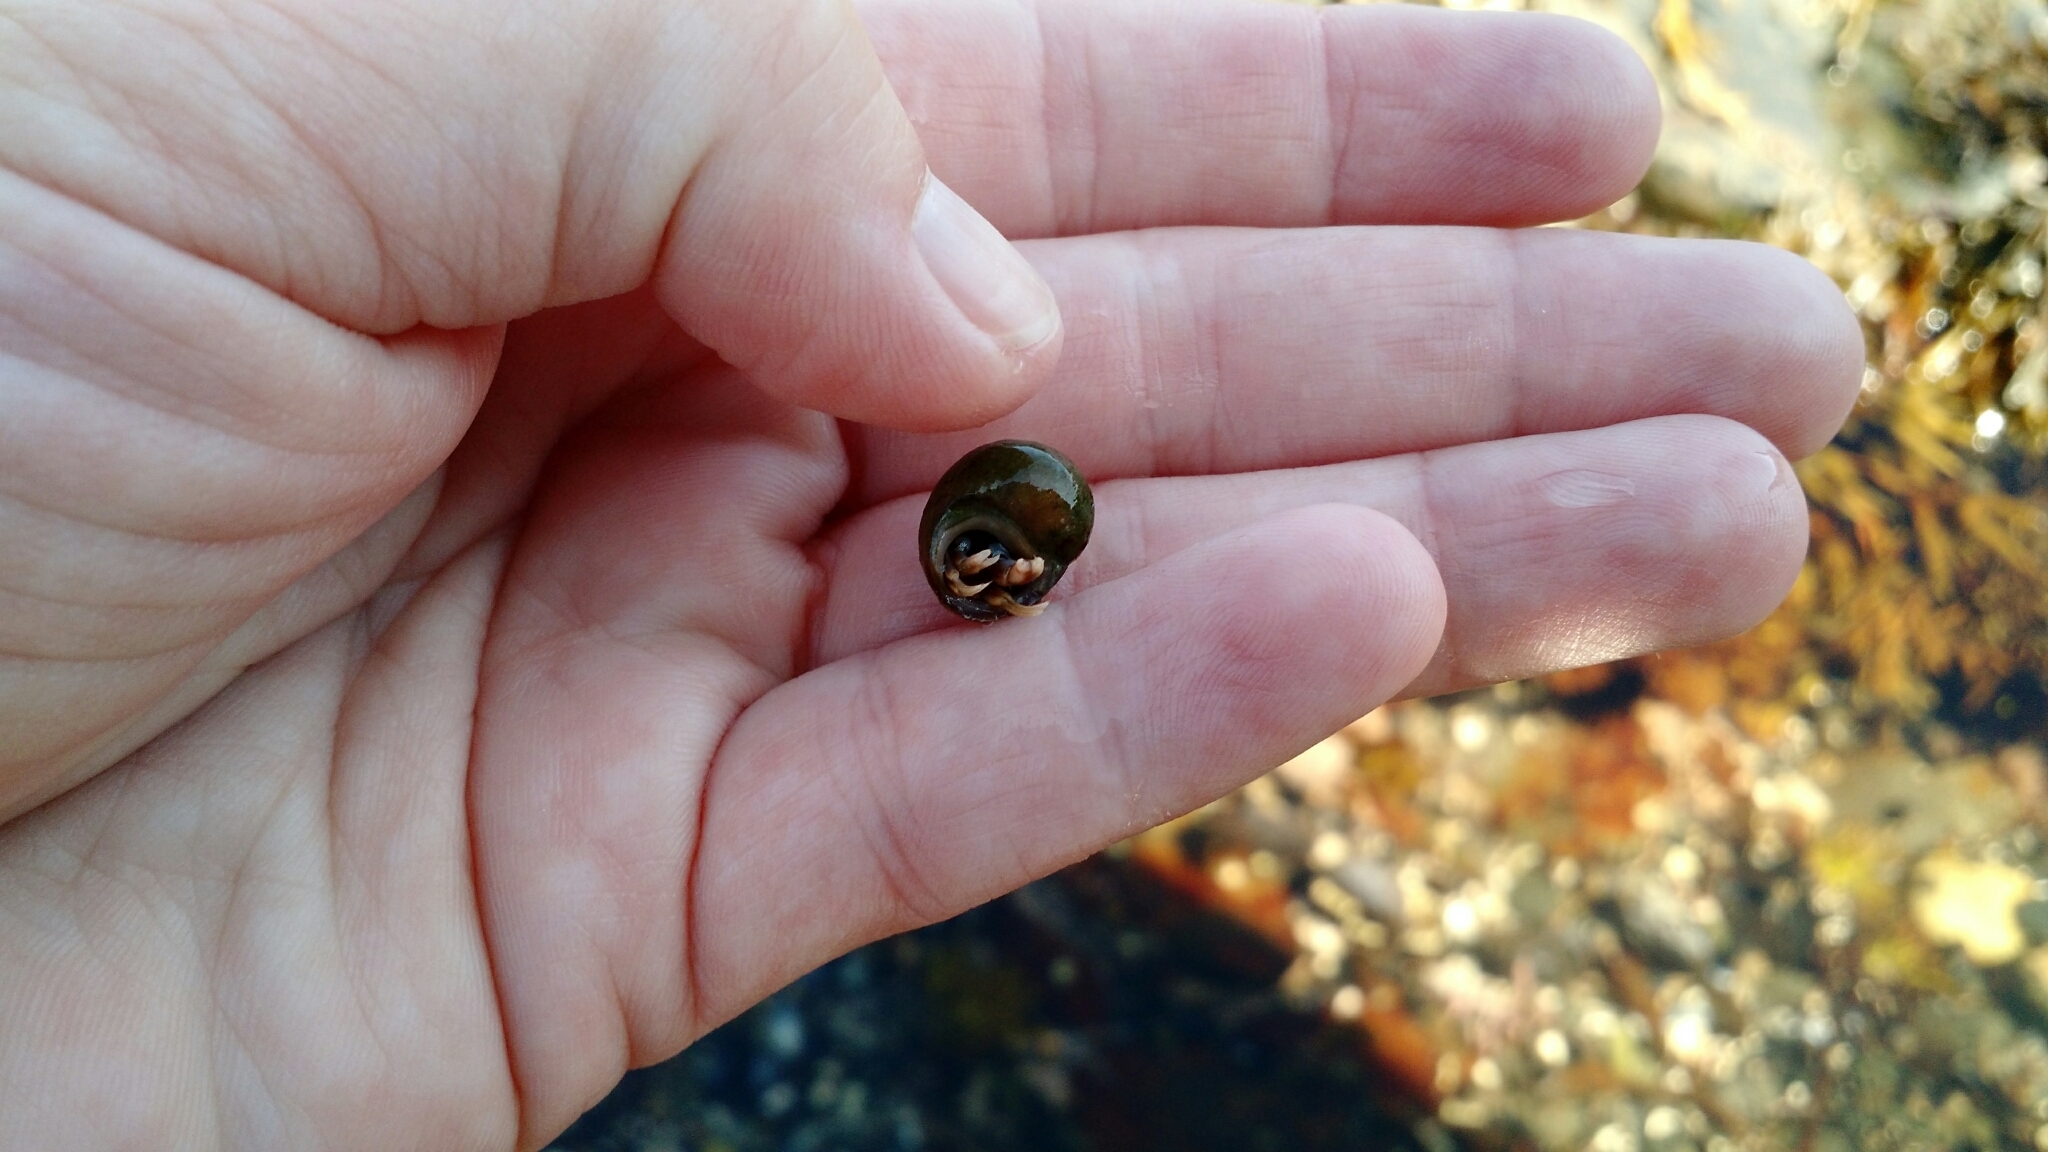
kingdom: Animalia
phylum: Arthropoda
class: Malacostraca
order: Decapoda
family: Paguridae
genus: Pagurus
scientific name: Pagurus longicarpus
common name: Long-armed hermit crab
